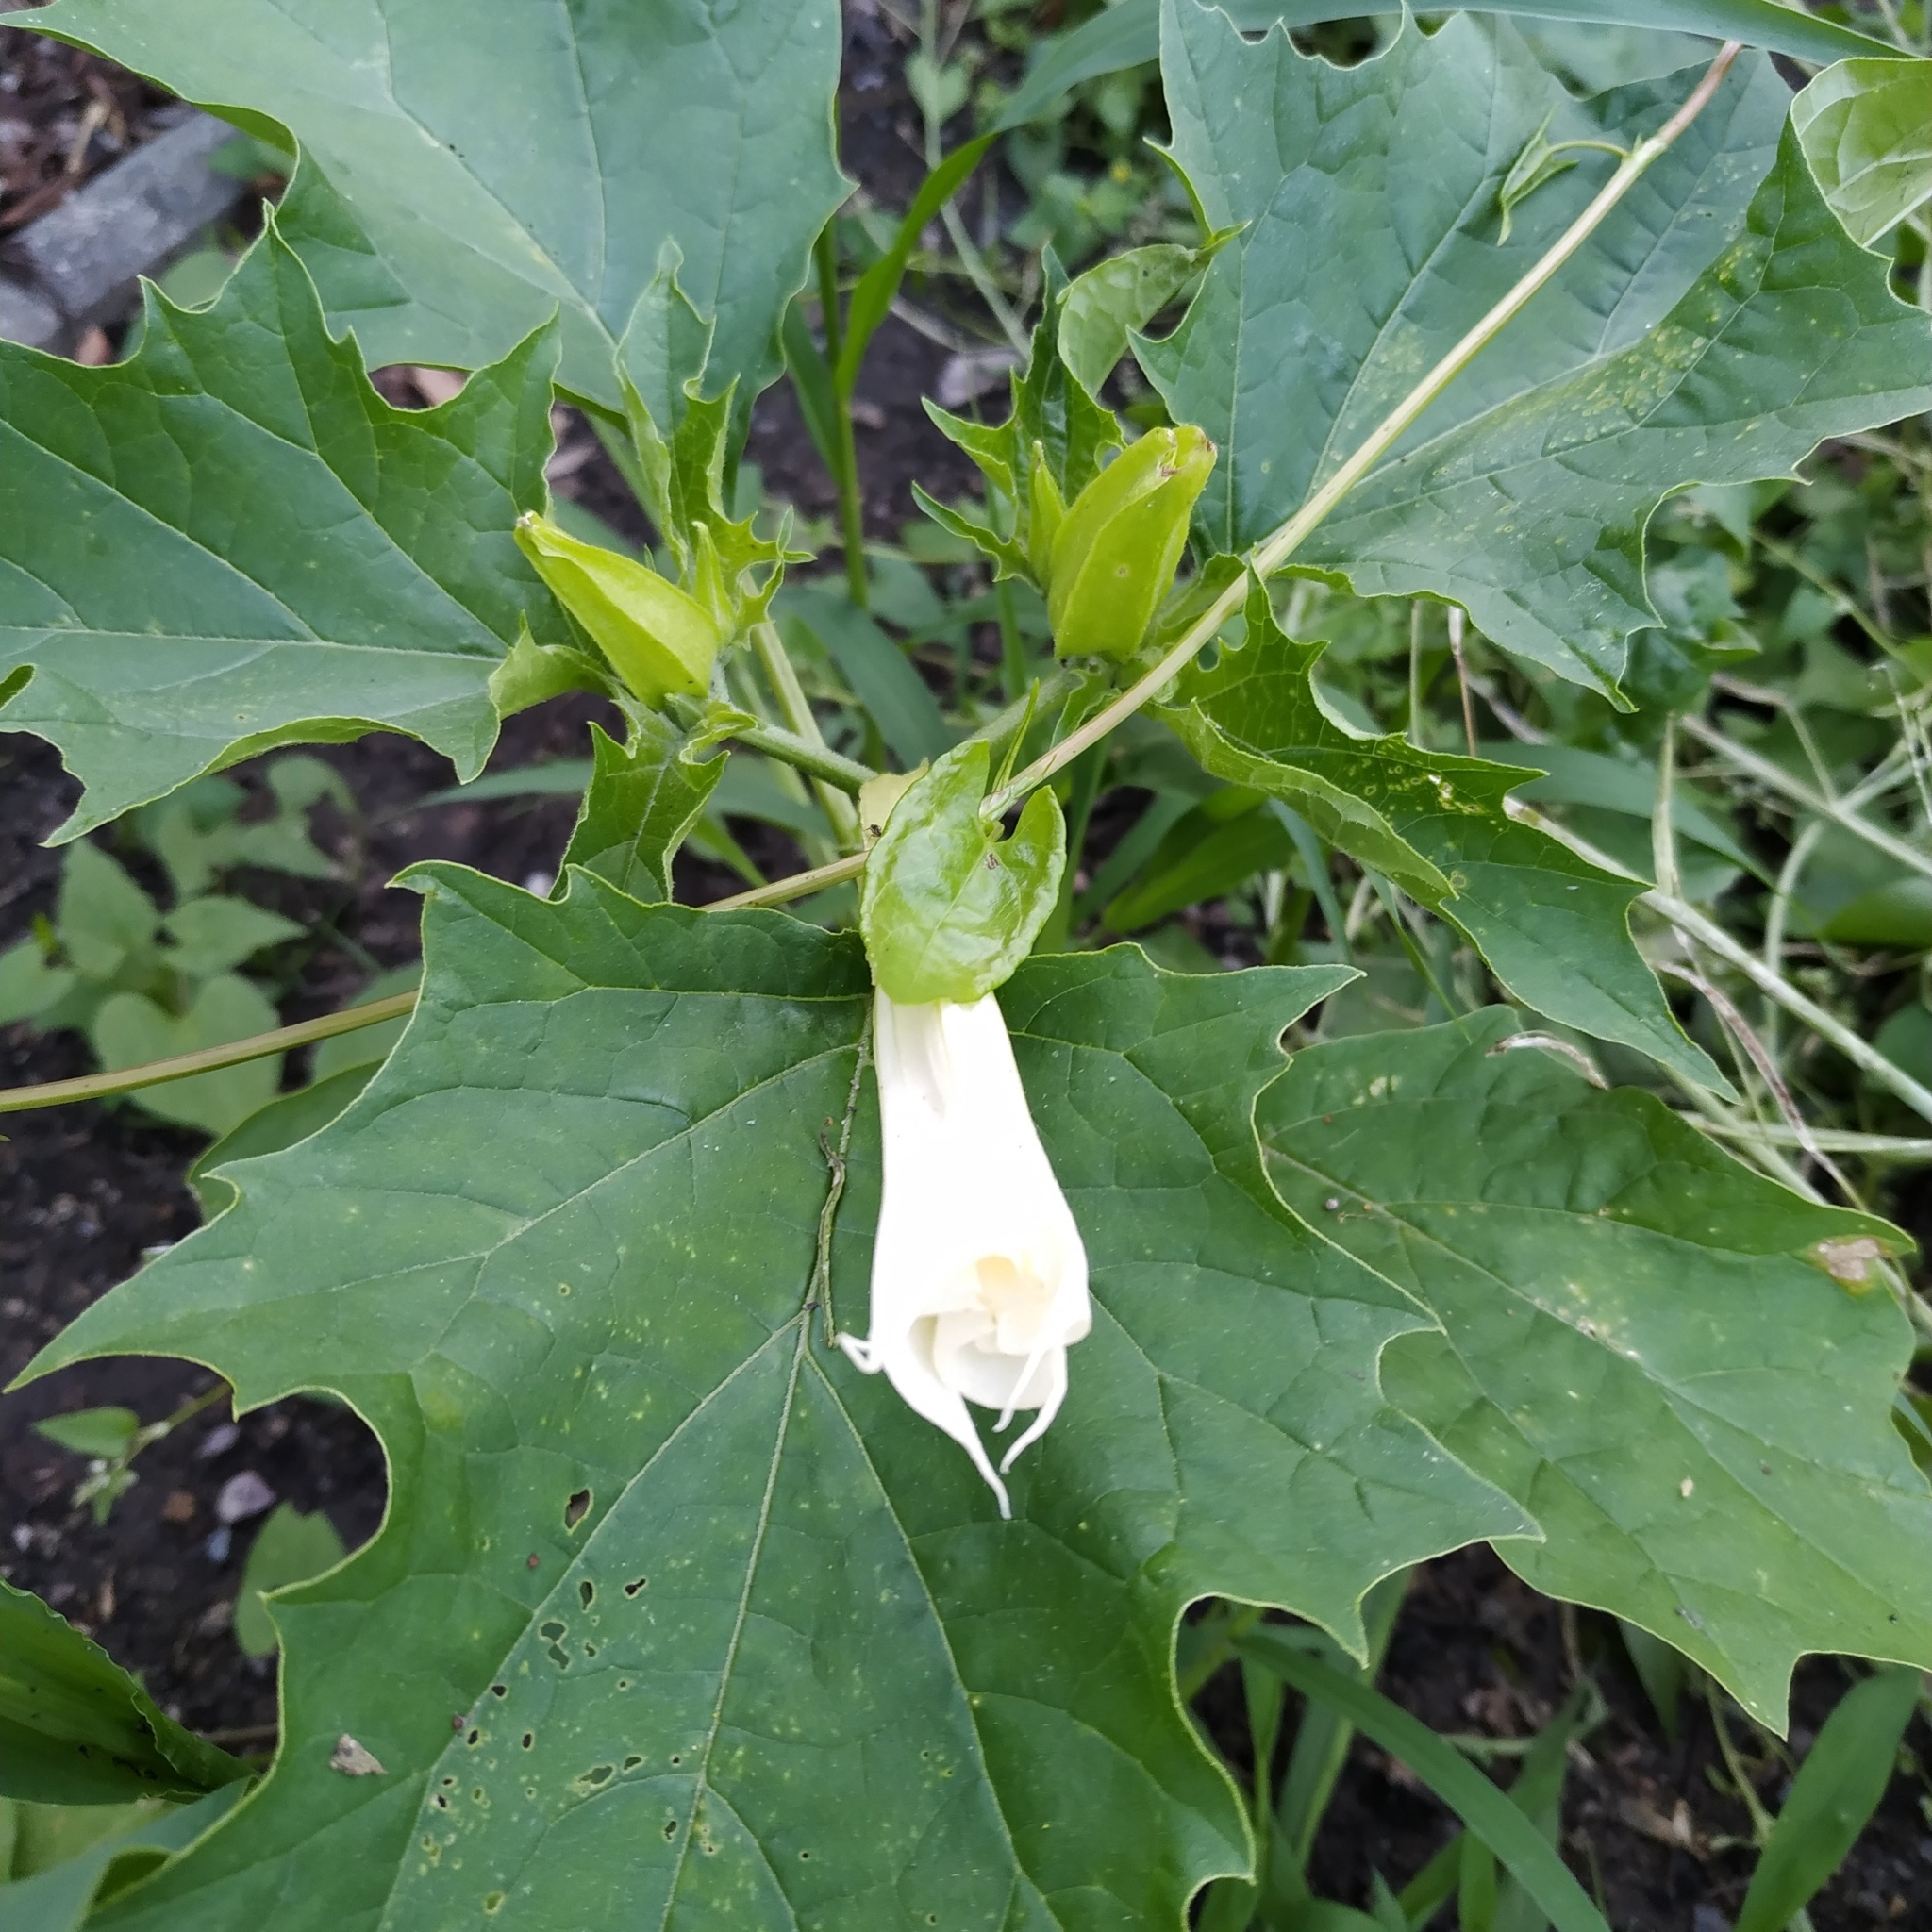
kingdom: Plantae
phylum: Tracheophyta
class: Magnoliopsida
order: Solanales
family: Solanaceae
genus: Datura
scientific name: Datura stramonium
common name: Thorn-apple
